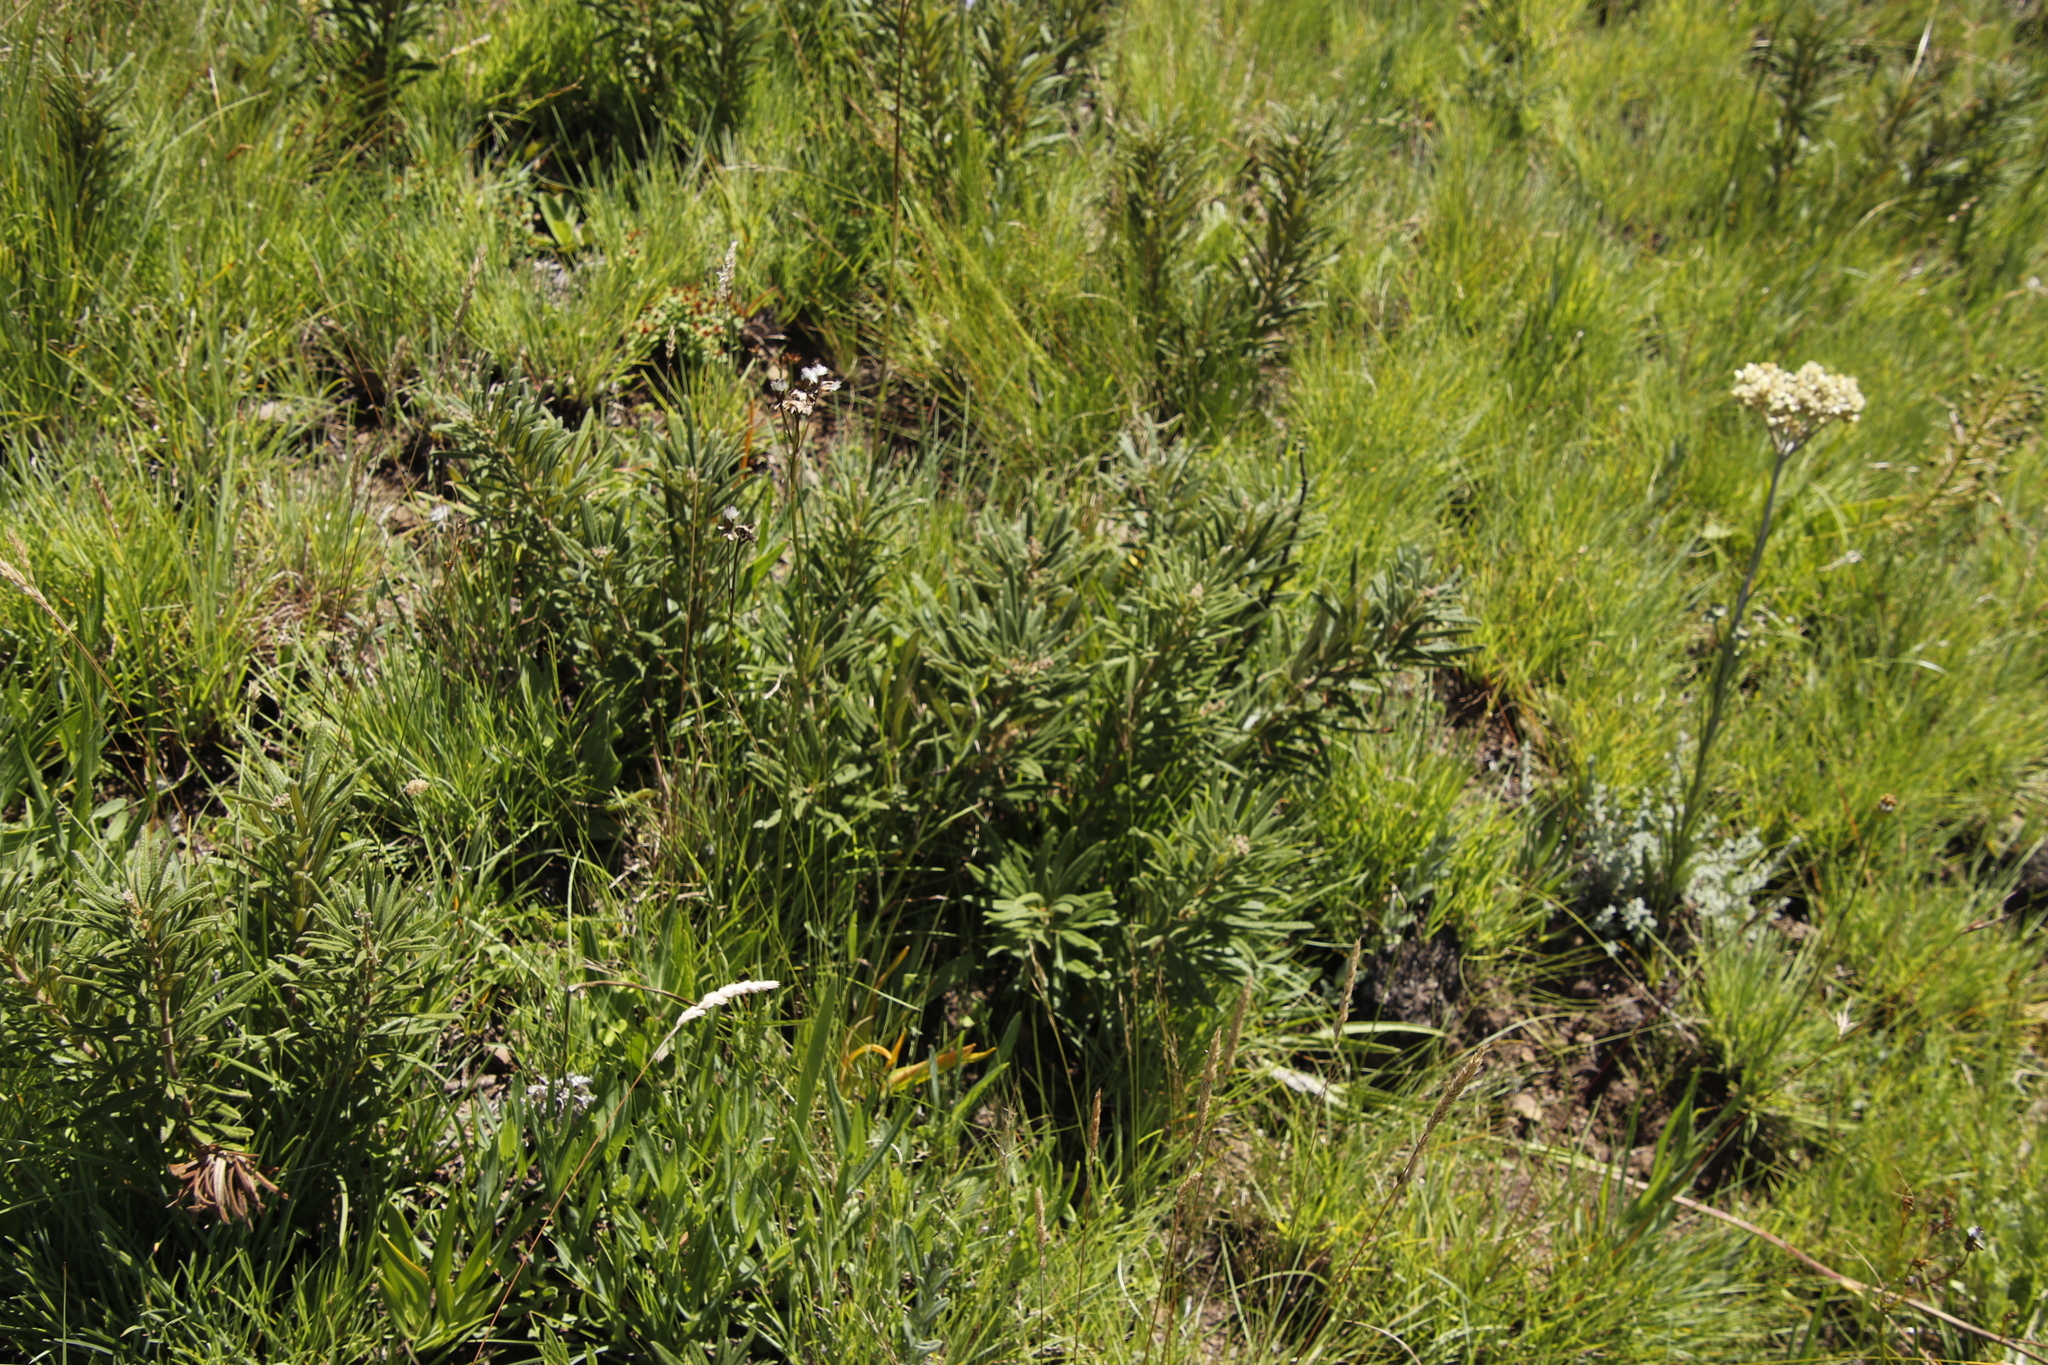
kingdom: Plantae
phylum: Tracheophyta
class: Magnoliopsida
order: Sapindales
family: Anacardiaceae
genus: Searsia
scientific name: Searsia discolor
